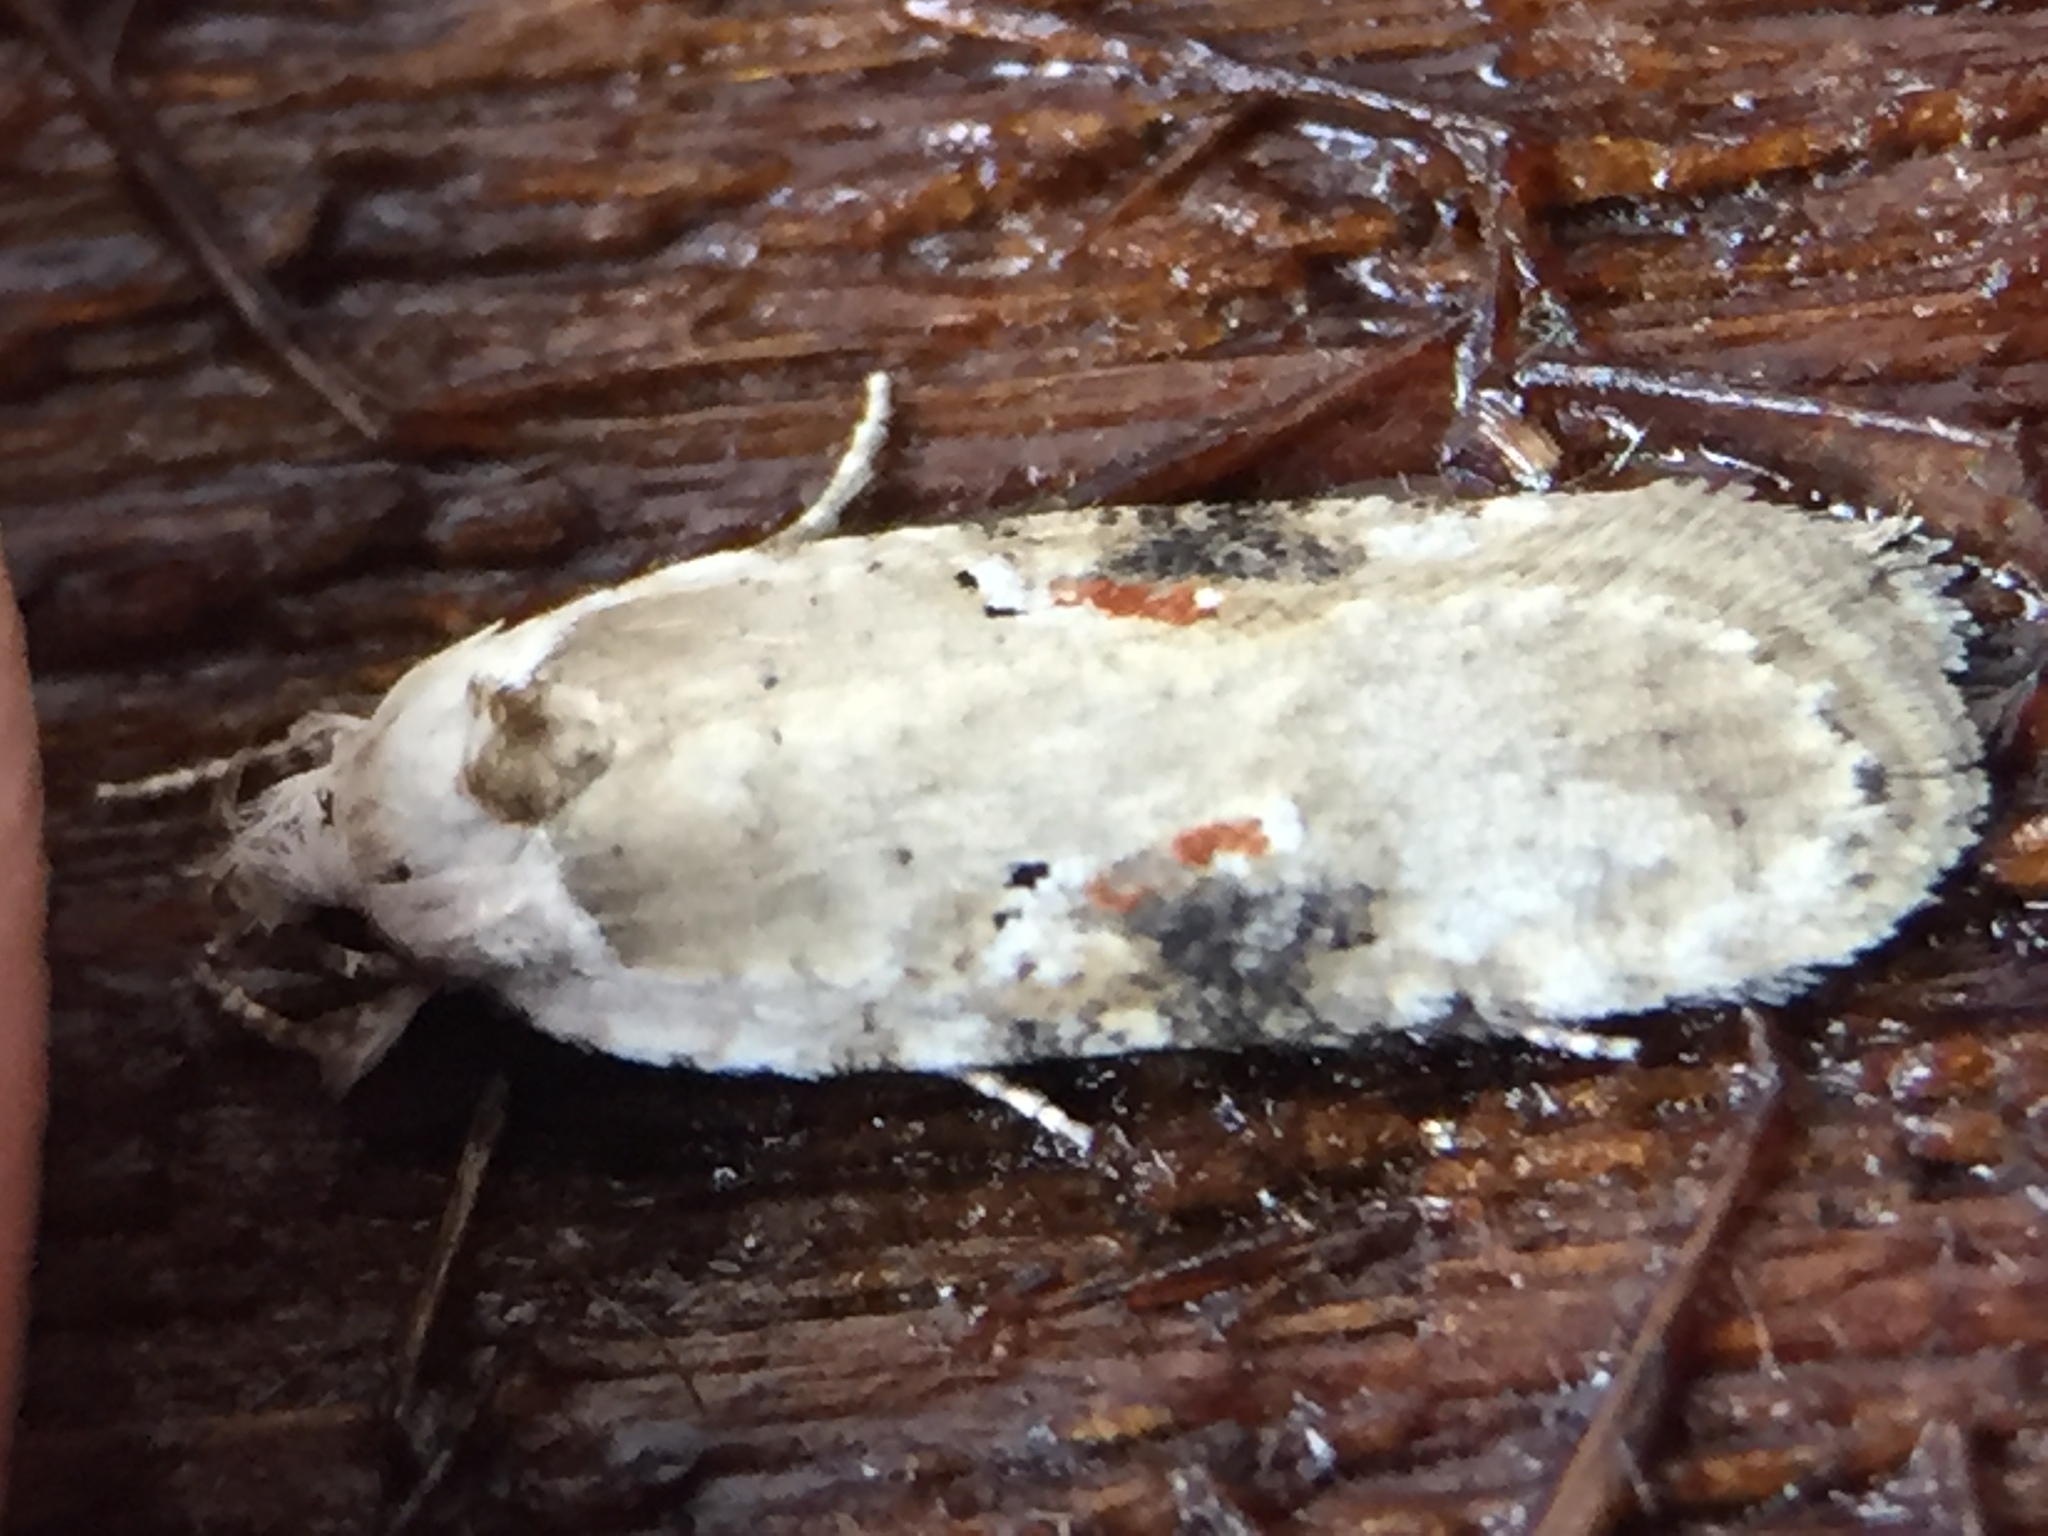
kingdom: Animalia
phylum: Arthropoda
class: Insecta
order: Lepidoptera
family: Depressariidae
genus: Agonopterix
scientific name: Agonopterix alstroemeriana
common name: Moth
